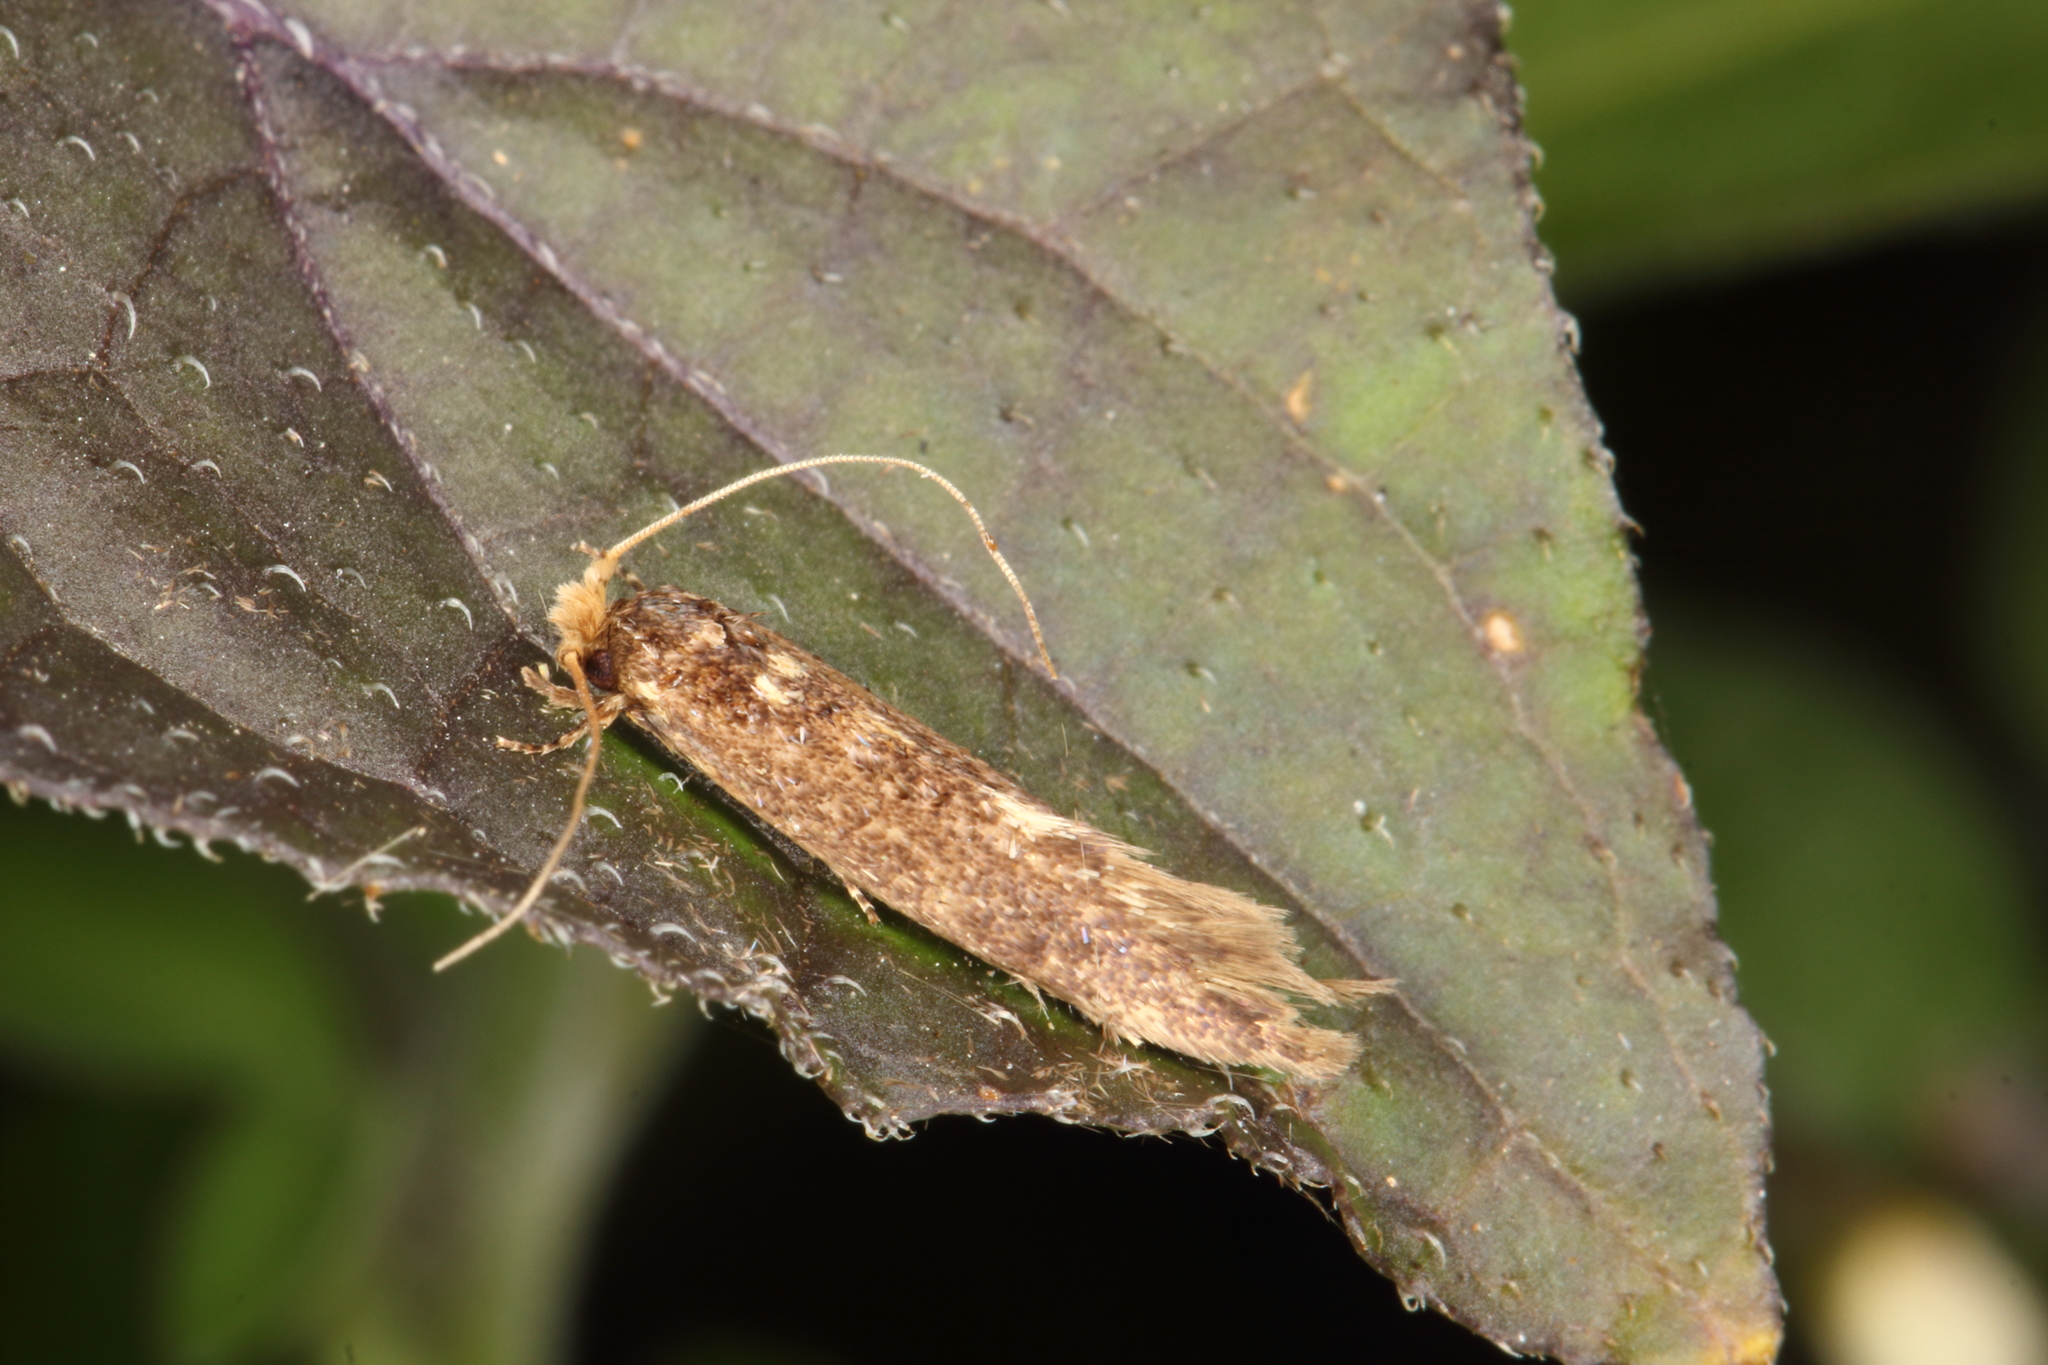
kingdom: Animalia
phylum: Arthropoda
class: Insecta
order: Lepidoptera
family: Tineidae
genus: Opogona
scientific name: Opogona omoscopa
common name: Moth
